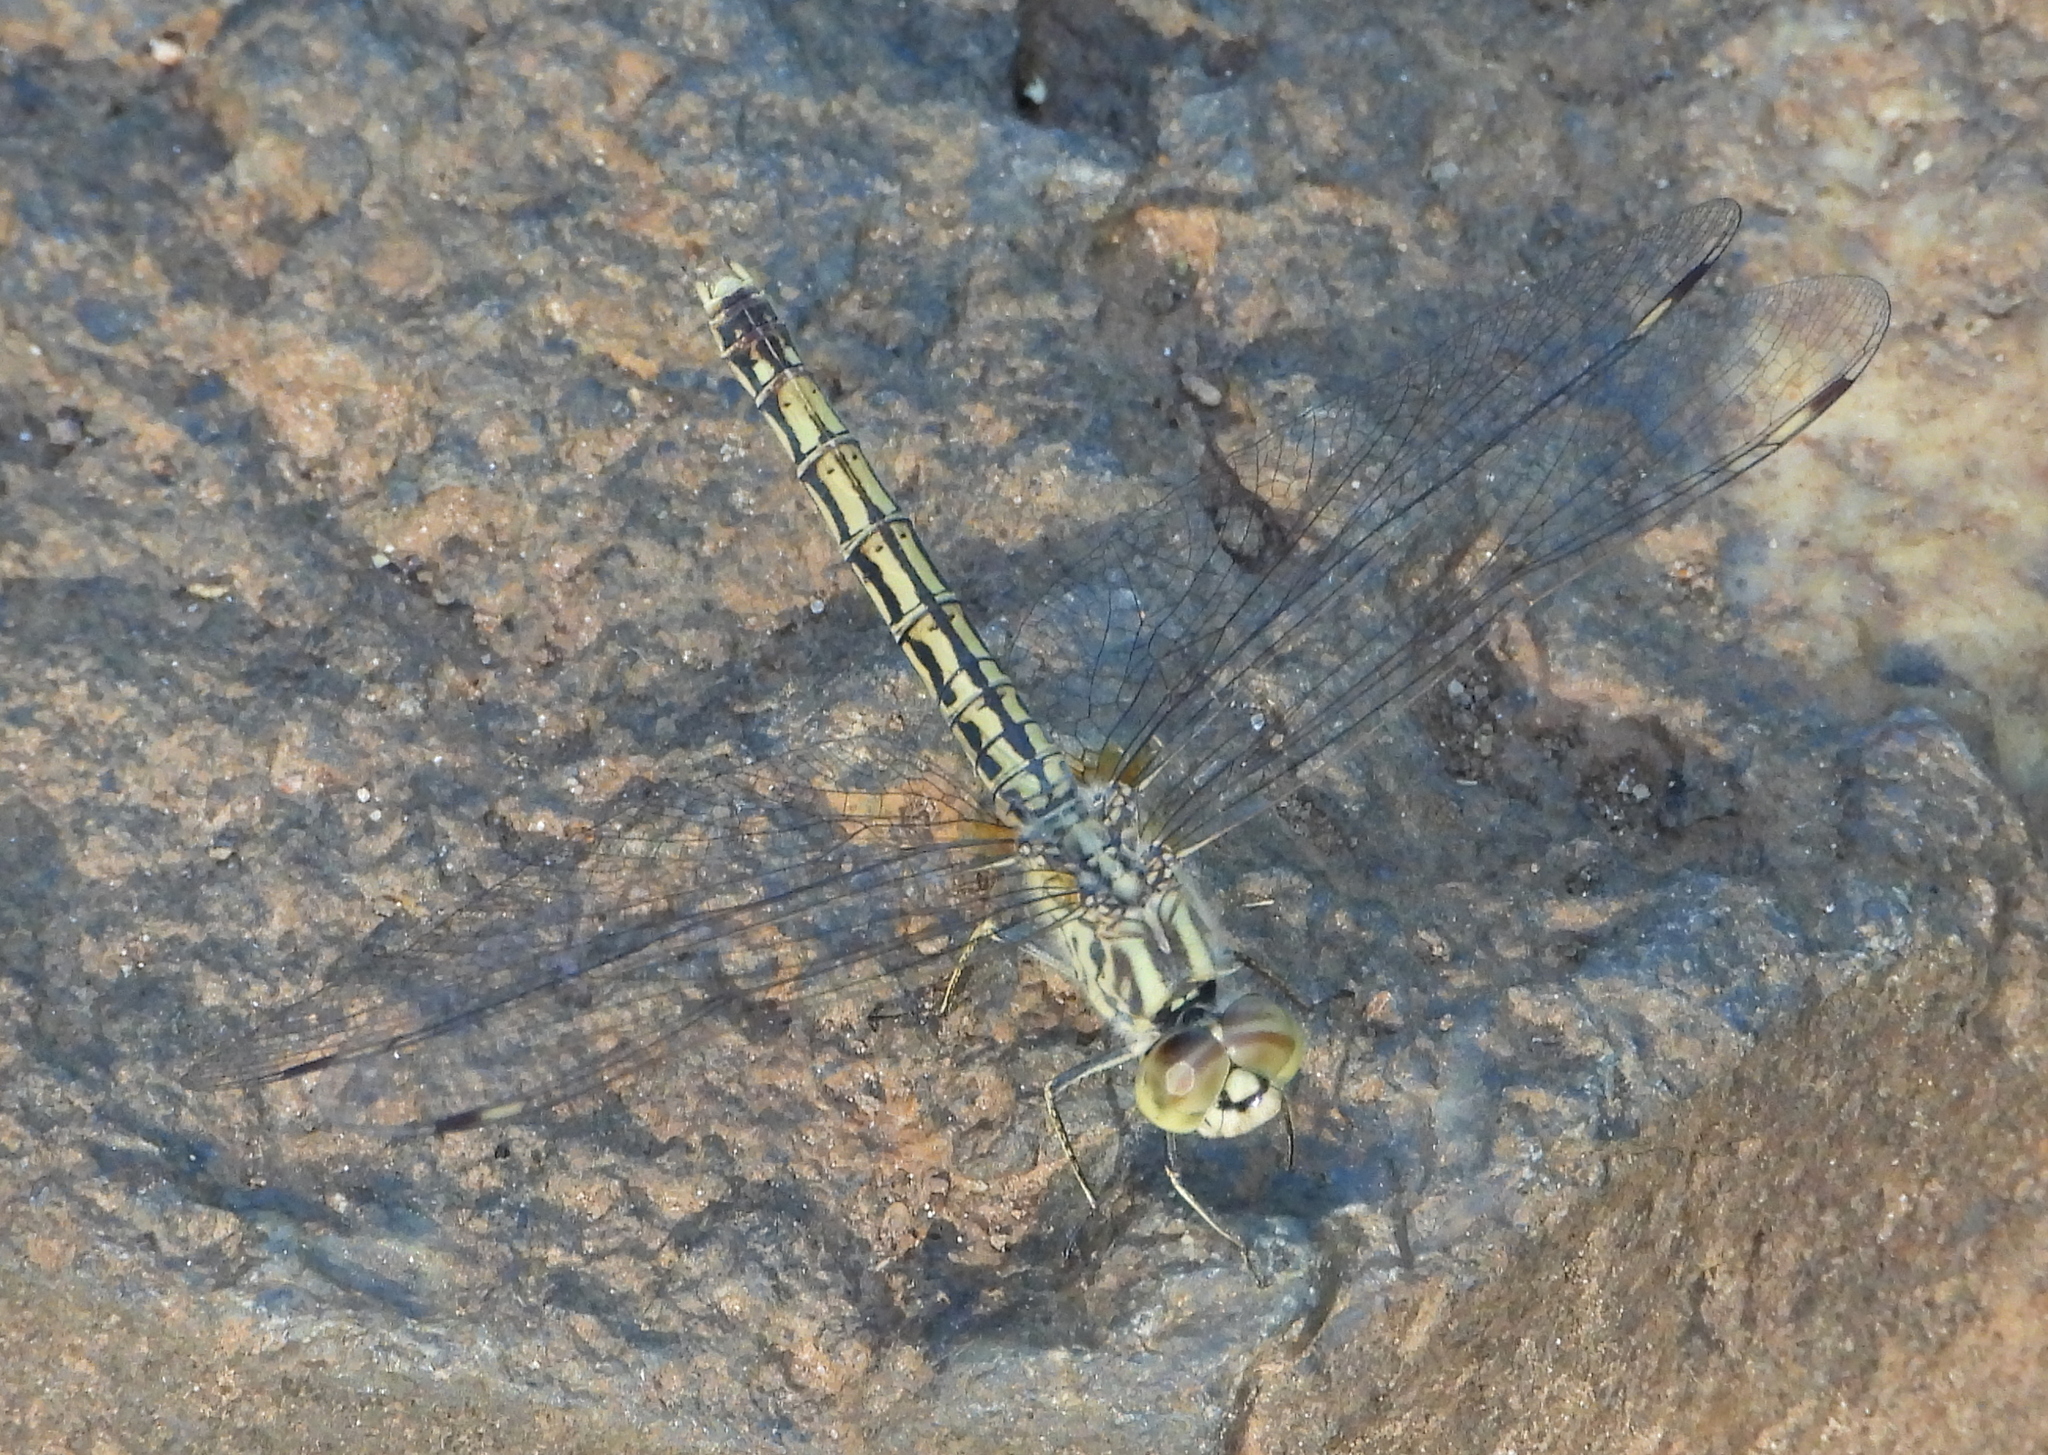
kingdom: Animalia
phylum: Arthropoda
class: Insecta
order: Odonata
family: Libellulidae
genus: Brachythemis
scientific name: Brachythemis leucosticta
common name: Banded groundling
